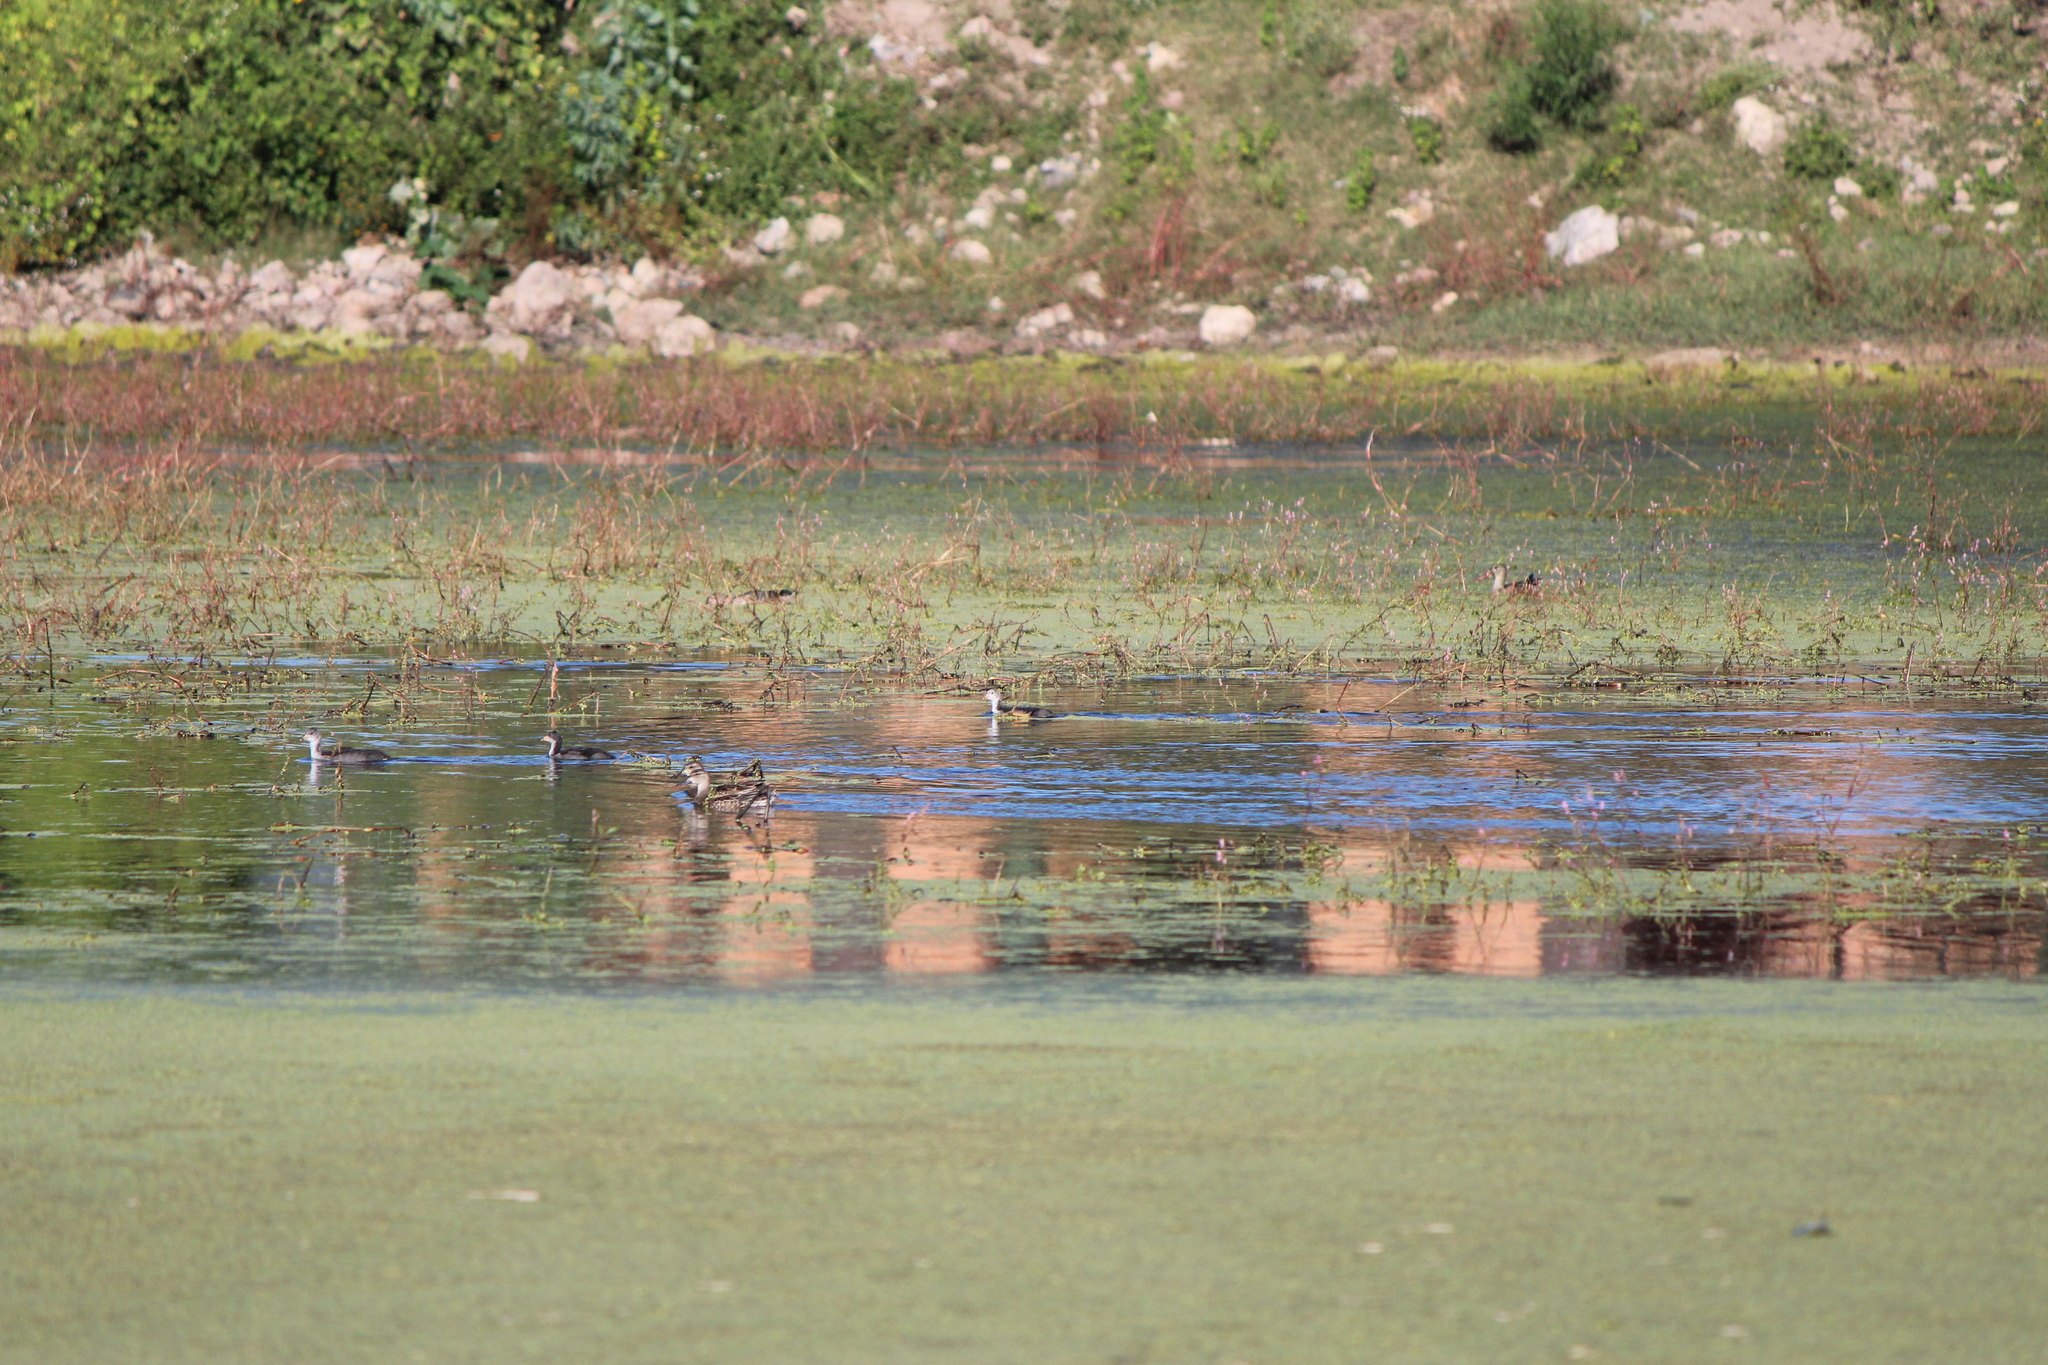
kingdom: Animalia
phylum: Chordata
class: Aves
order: Gruiformes
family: Rallidae
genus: Fulica
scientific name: Fulica americana
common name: American coot
